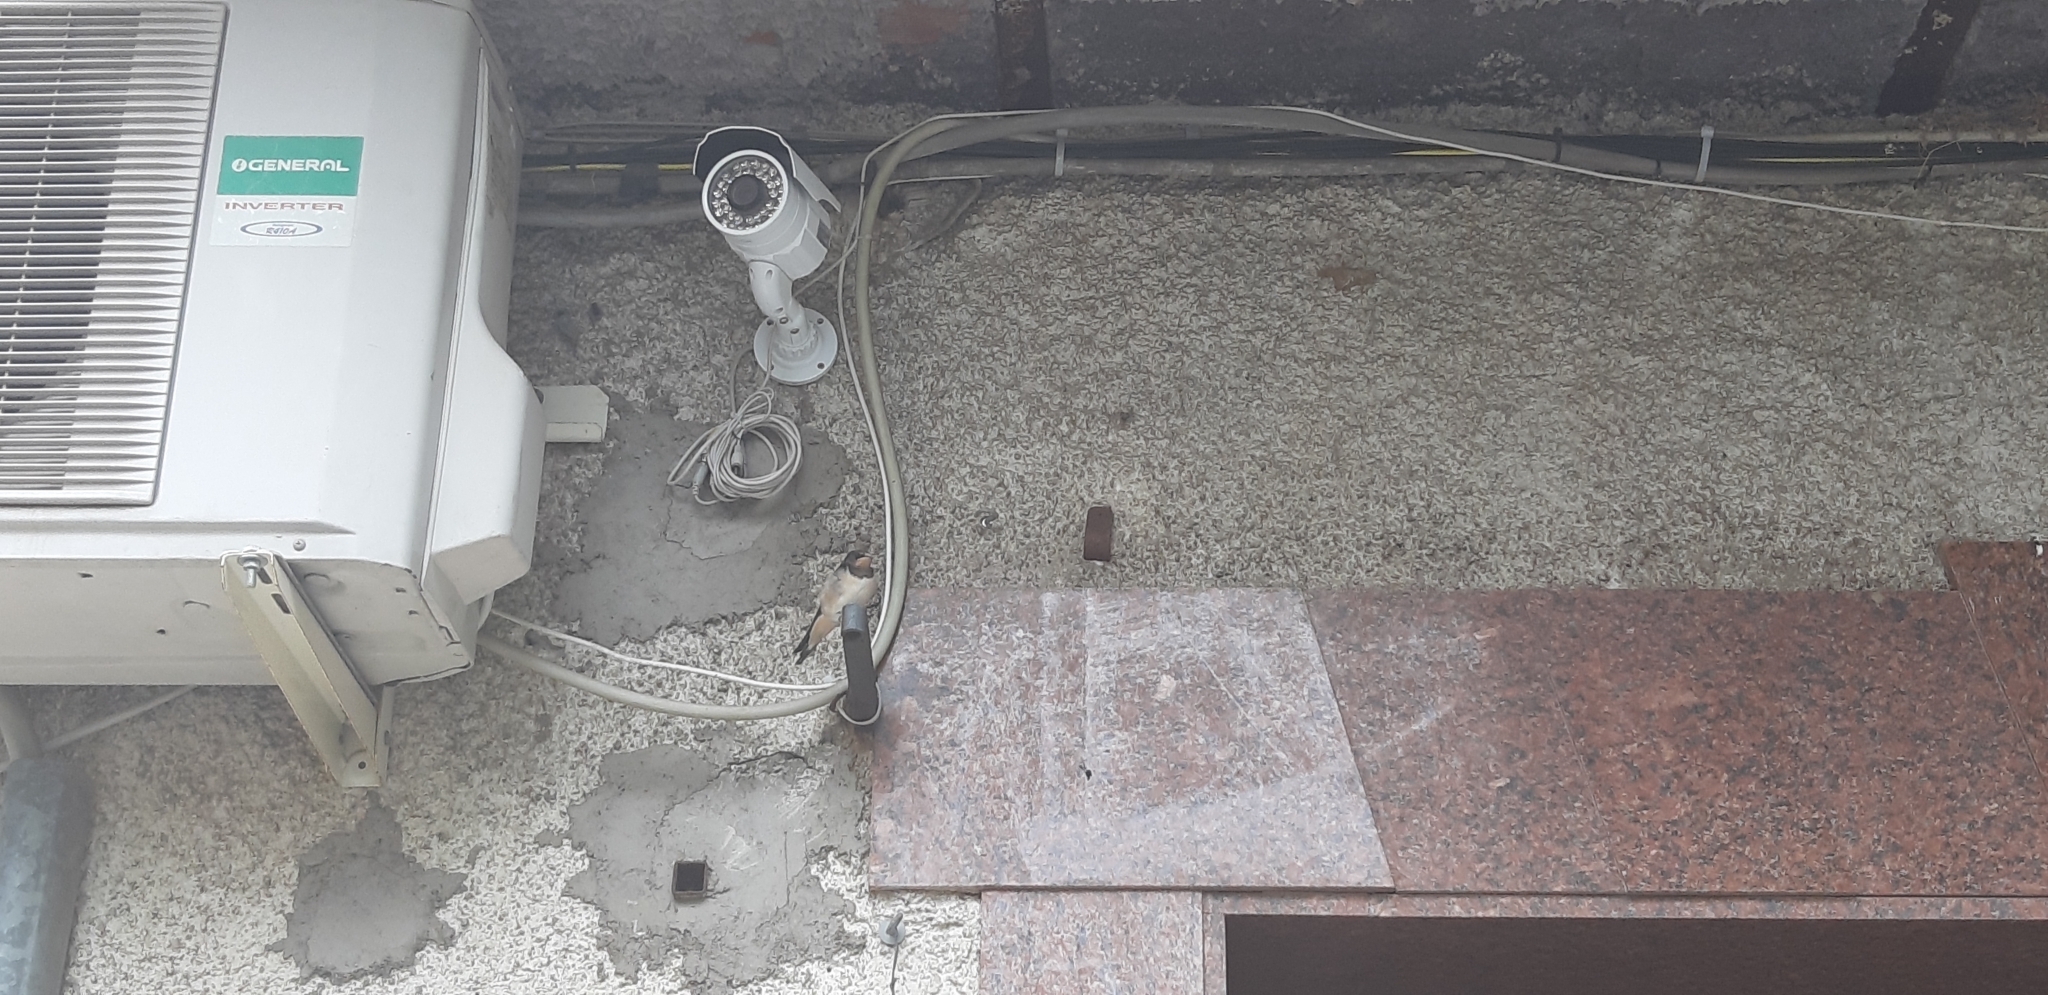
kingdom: Animalia
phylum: Chordata
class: Aves
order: Passeriformes
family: Hirundinidae
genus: Hirundo
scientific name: Hirundo rustica
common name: Barn swallow
